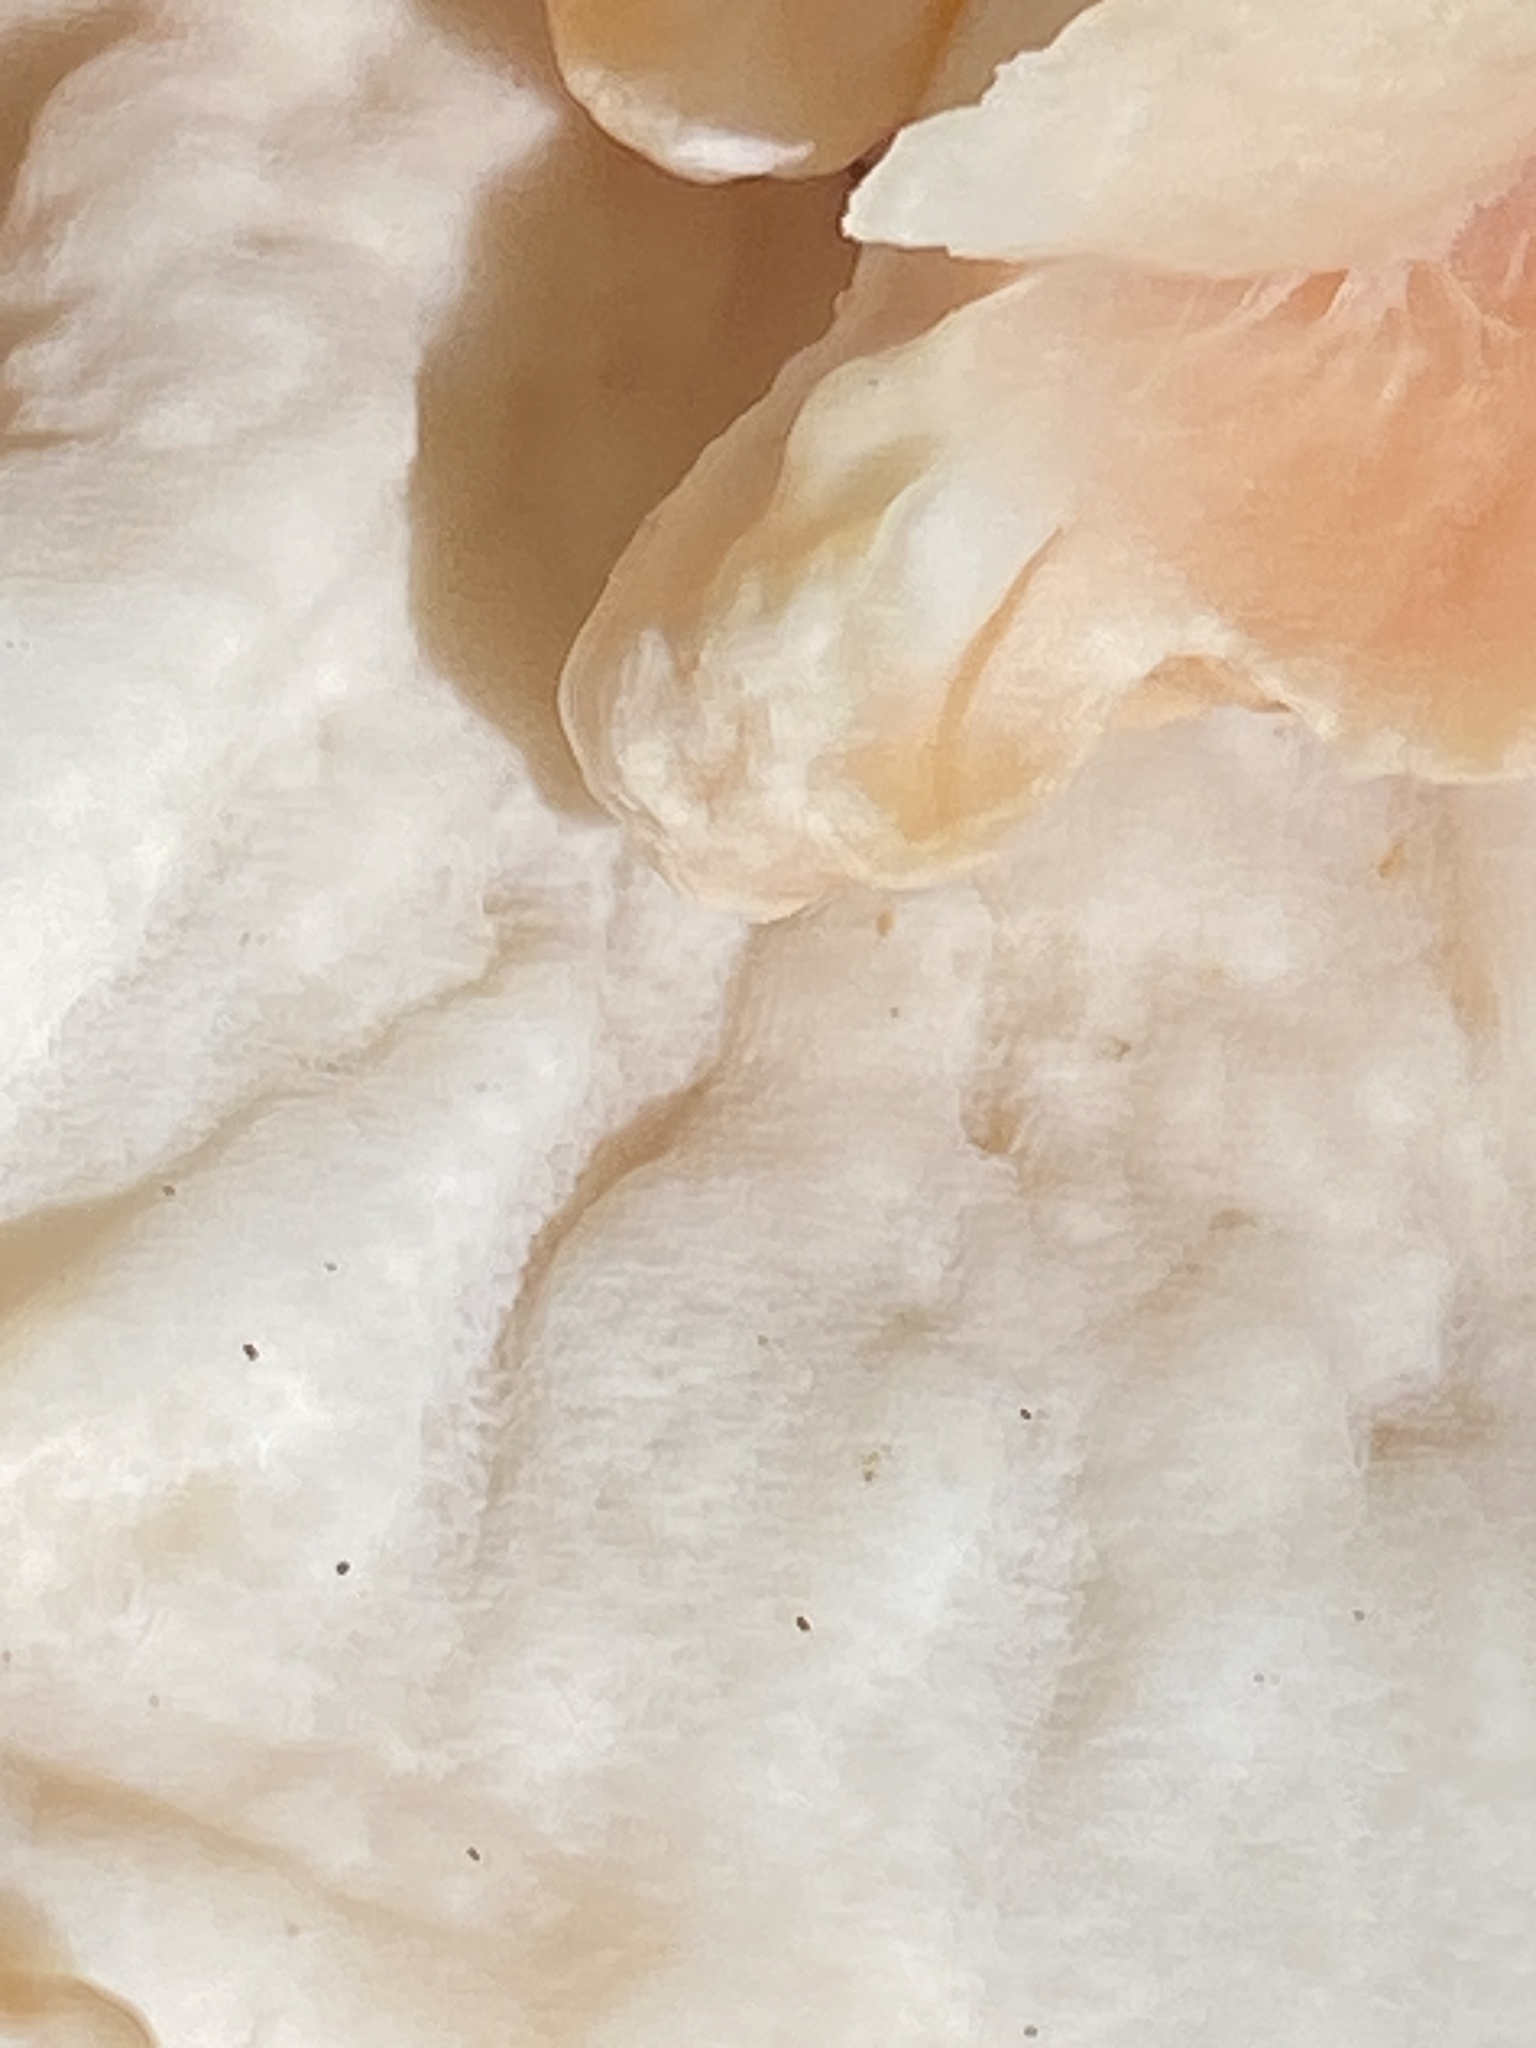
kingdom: Fungi
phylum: Basidiomycota
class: Agaricomycetes
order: Polyporales
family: Laetiporaceae
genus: Laetiporus
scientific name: Laetiporus sulphureus
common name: Chicken of the woods
